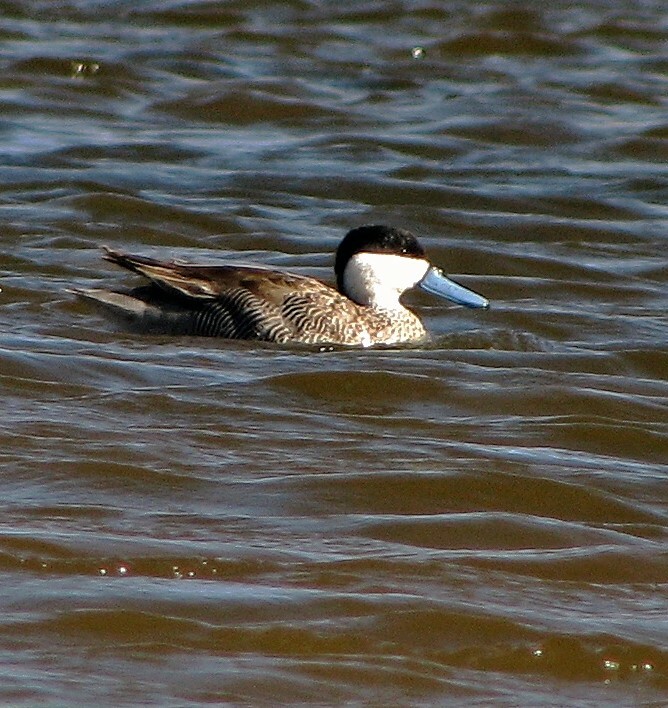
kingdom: Animalia
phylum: Chordata
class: Aves
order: Anseriformes
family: Anatidae
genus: Spatula
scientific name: Spatula puna
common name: Puna teal
